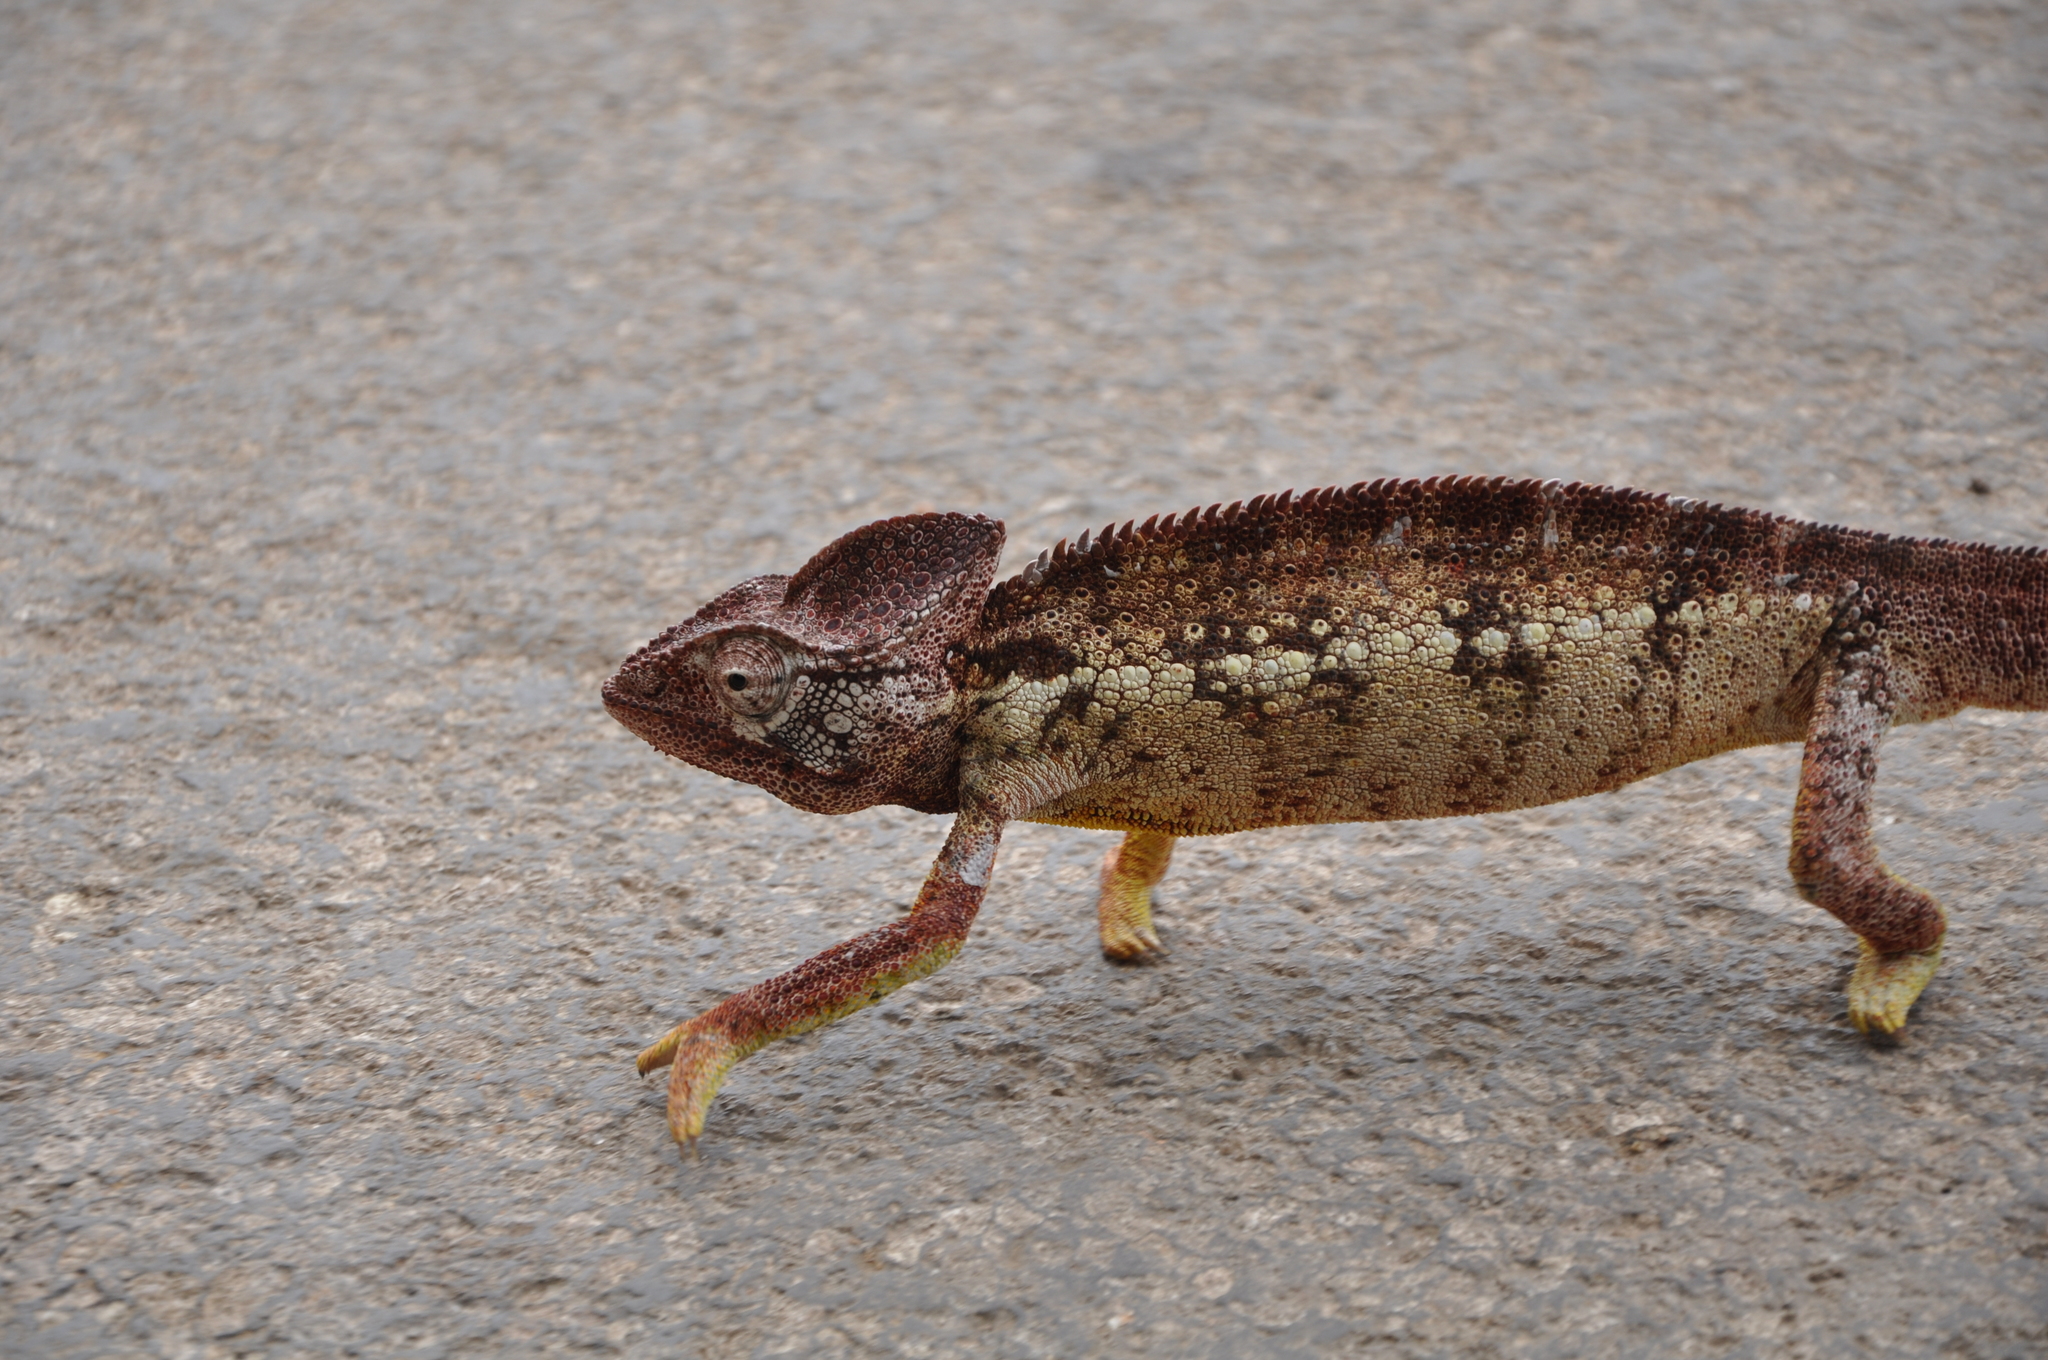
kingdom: Animalia
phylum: Chordata
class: Squamata
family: Chamaeleonidae
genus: Furcifer
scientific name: Furcifer oustaleti
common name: Oustalet's chameleon
